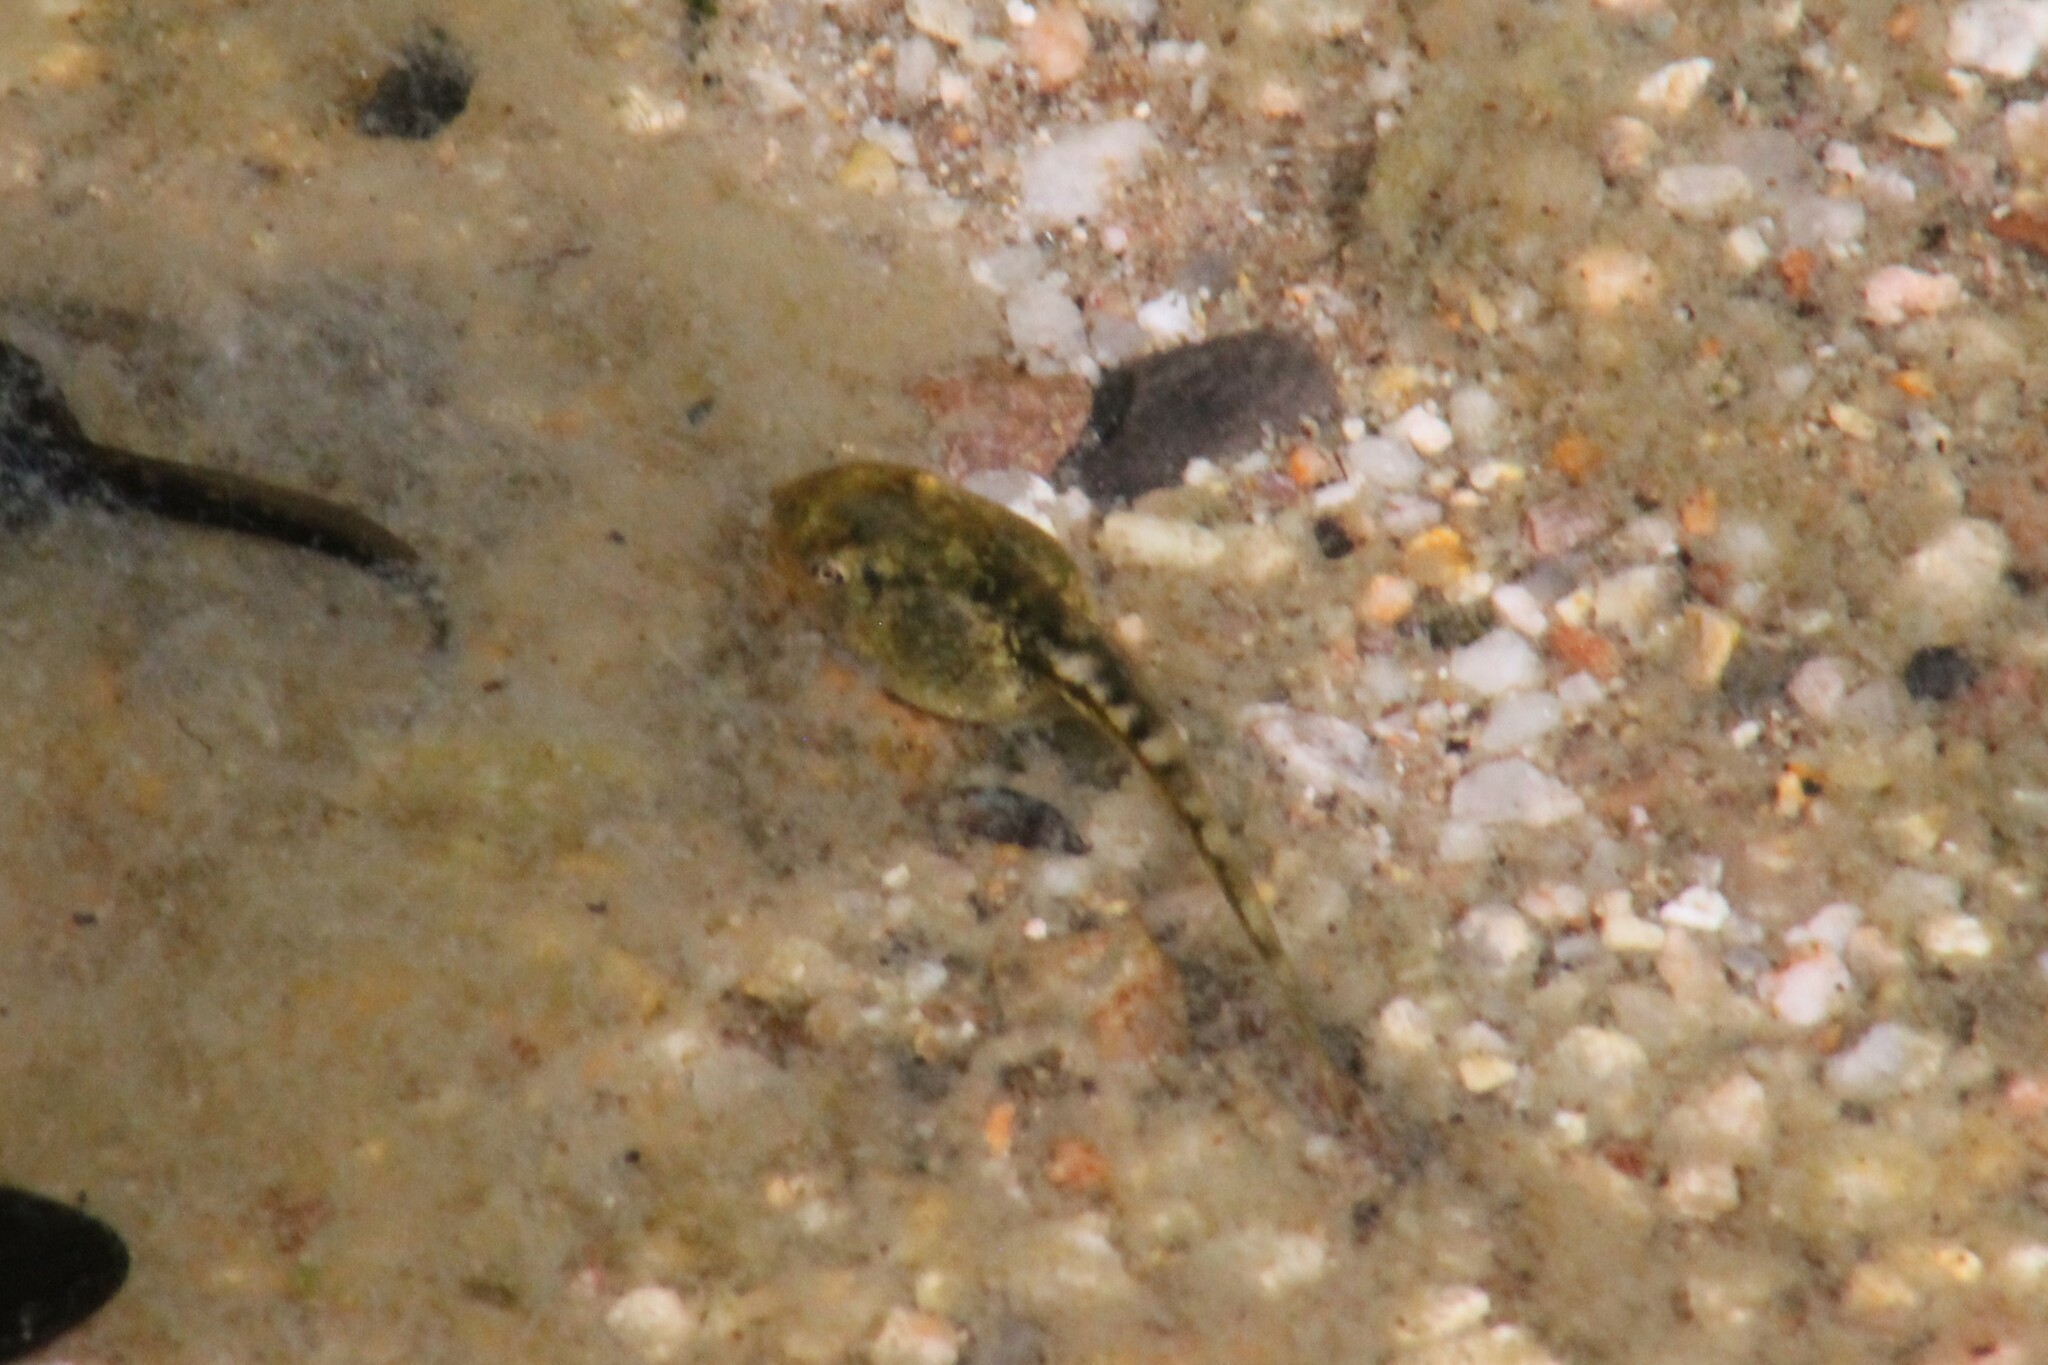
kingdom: Animalia
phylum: Chordata
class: Amphibia
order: Anura
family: Hylidae
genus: Pseudacris
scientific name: Pseudacris regilla
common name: Pacific chorus frog
